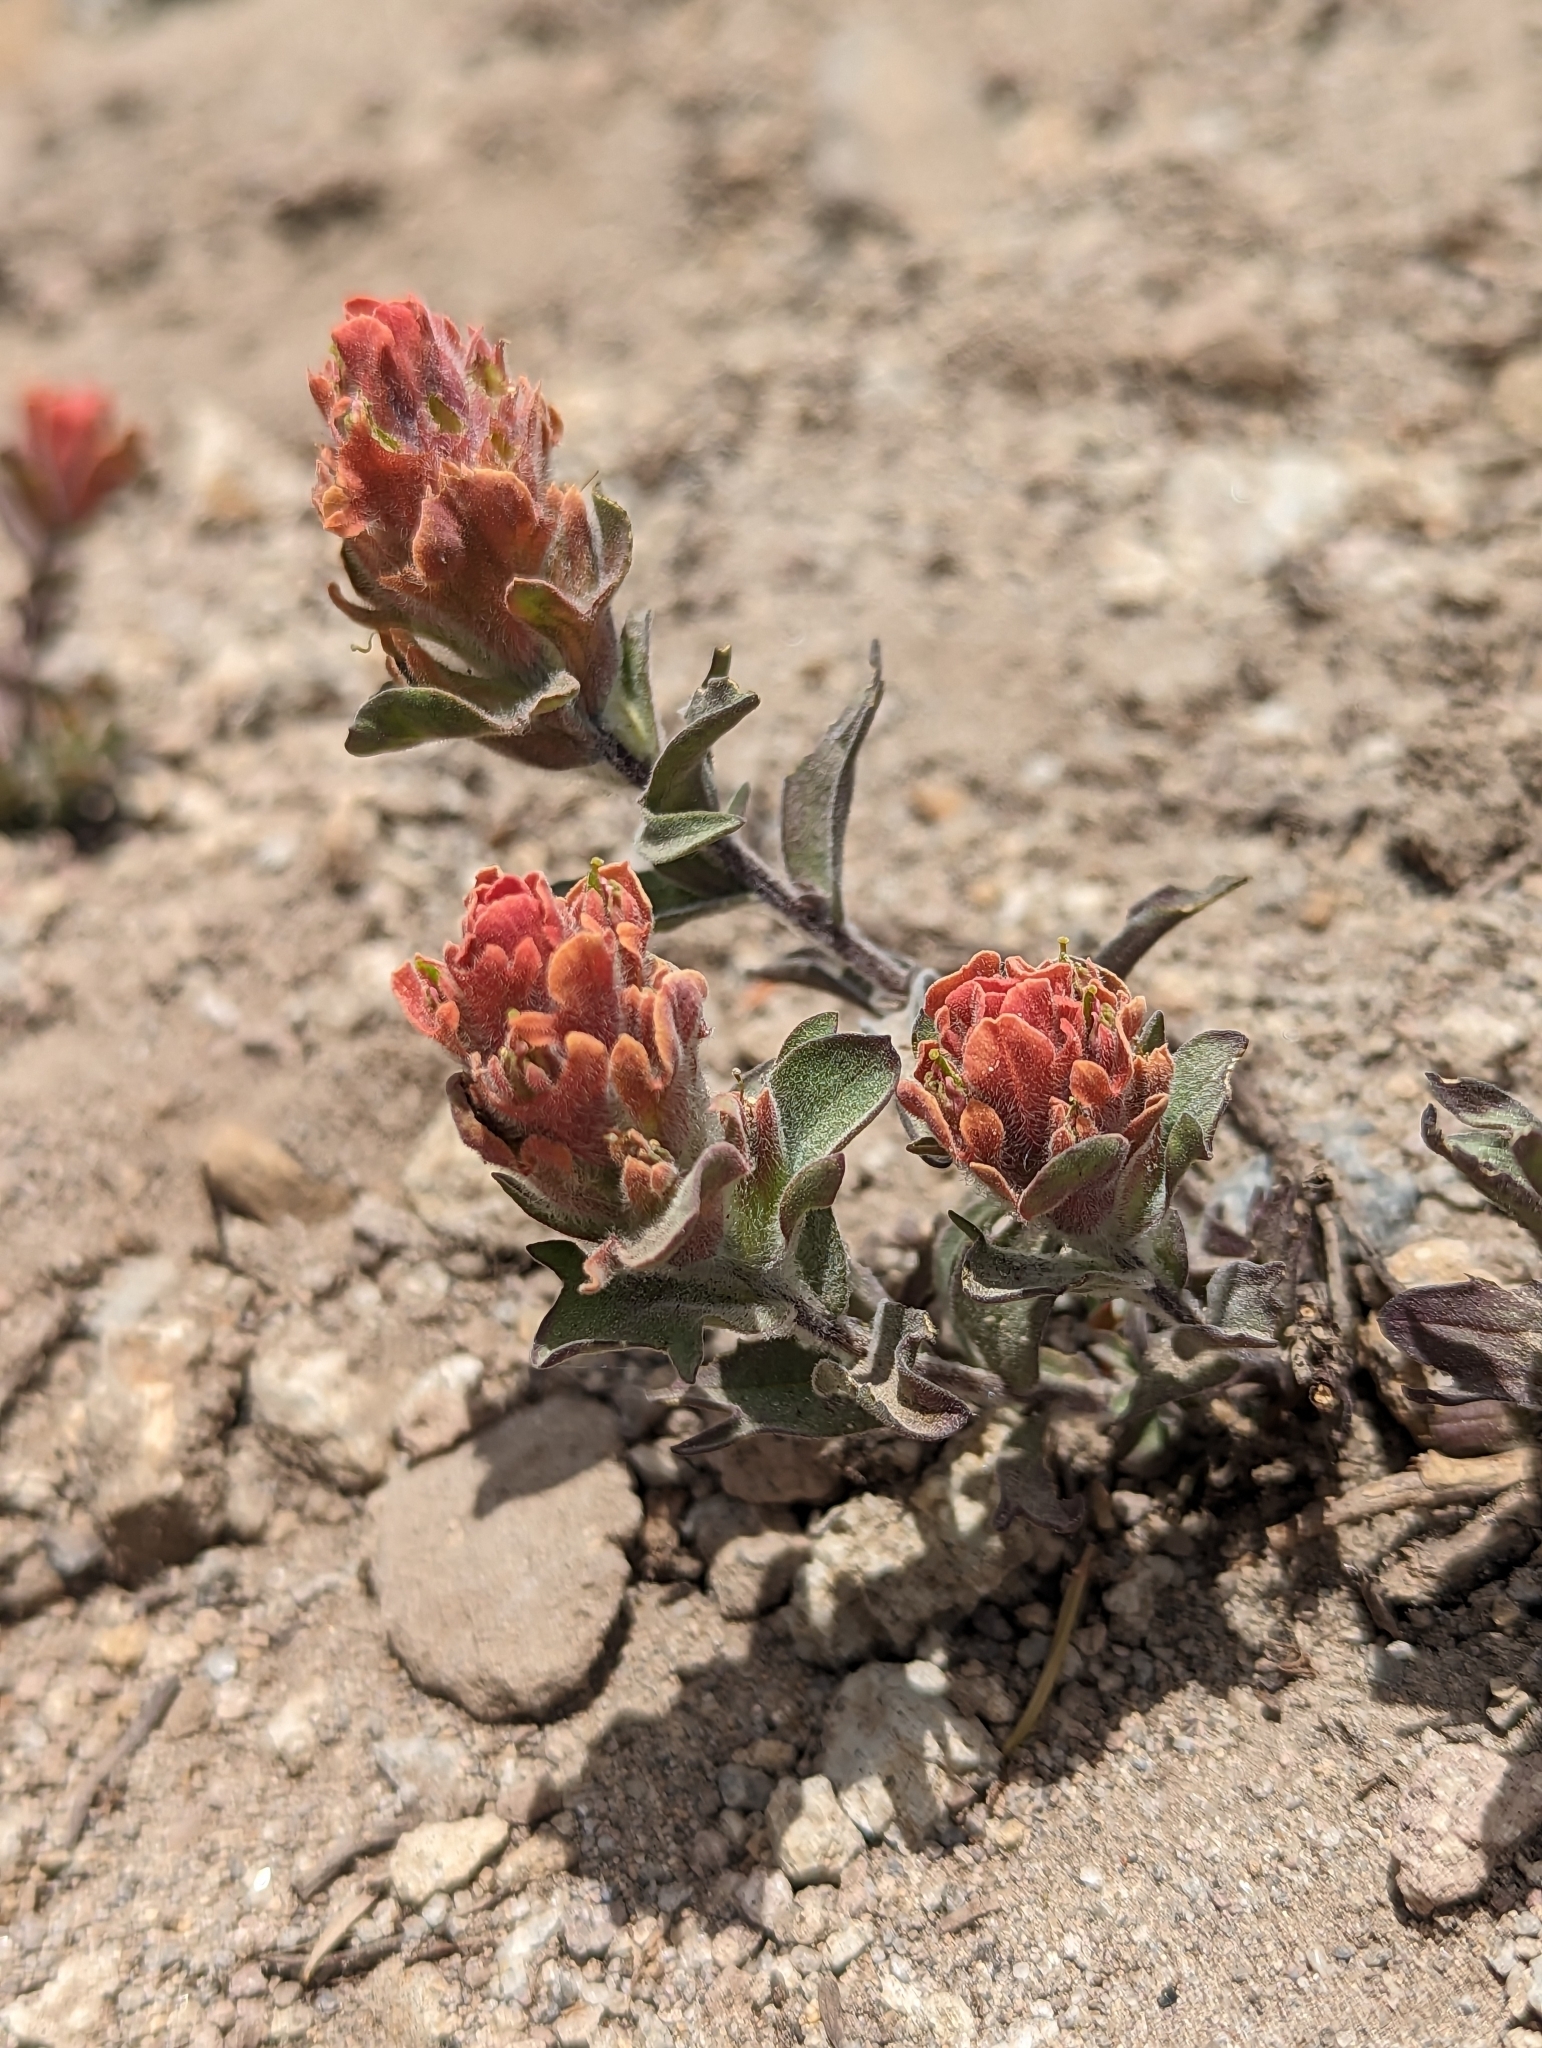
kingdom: Plantae
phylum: Tracheophyta
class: Magnoliopsida
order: Lamiales
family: Orobanchaceae
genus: Castilleja
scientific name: Castilleja arachnoidea
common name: Cobwebby indian paintbrush
